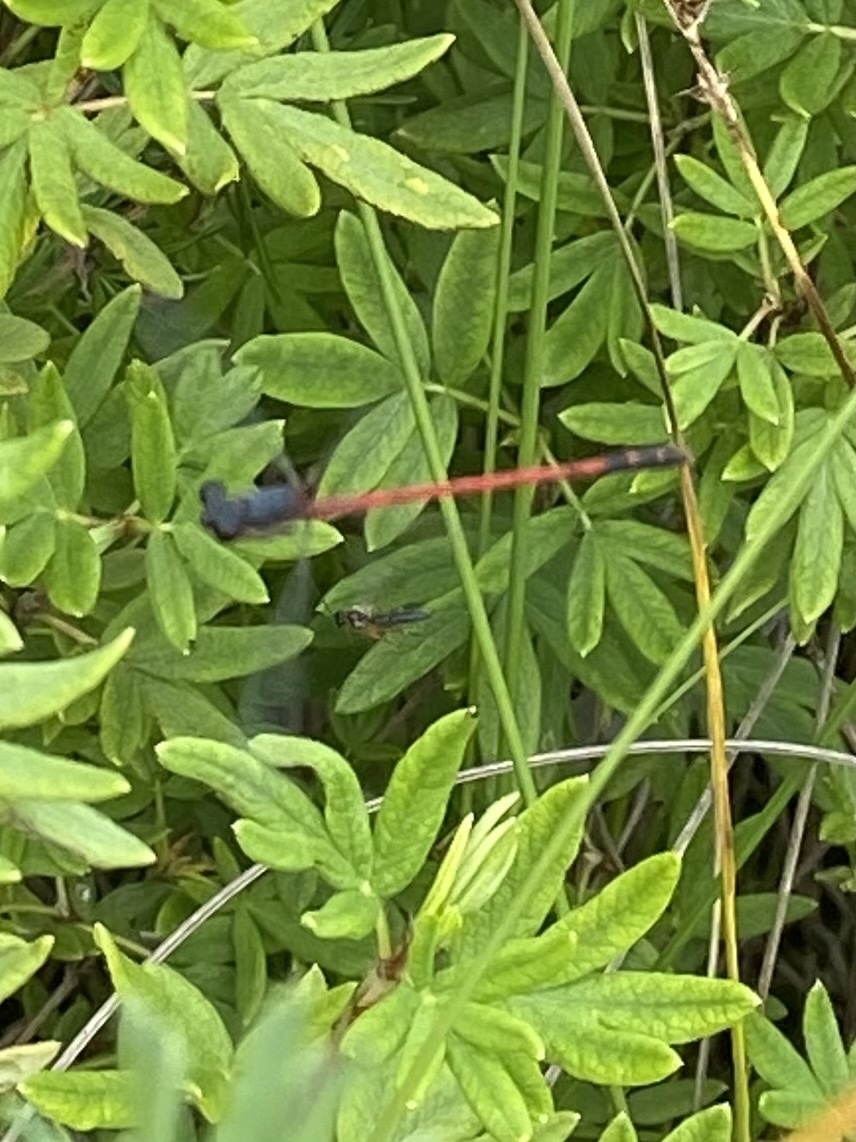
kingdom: Animalia
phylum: Arthropoda
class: Insecta
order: Odonata
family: Coenagrionidae
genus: Amphiagrion
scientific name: Amphiagrion saucium
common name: Eastern red damsel
